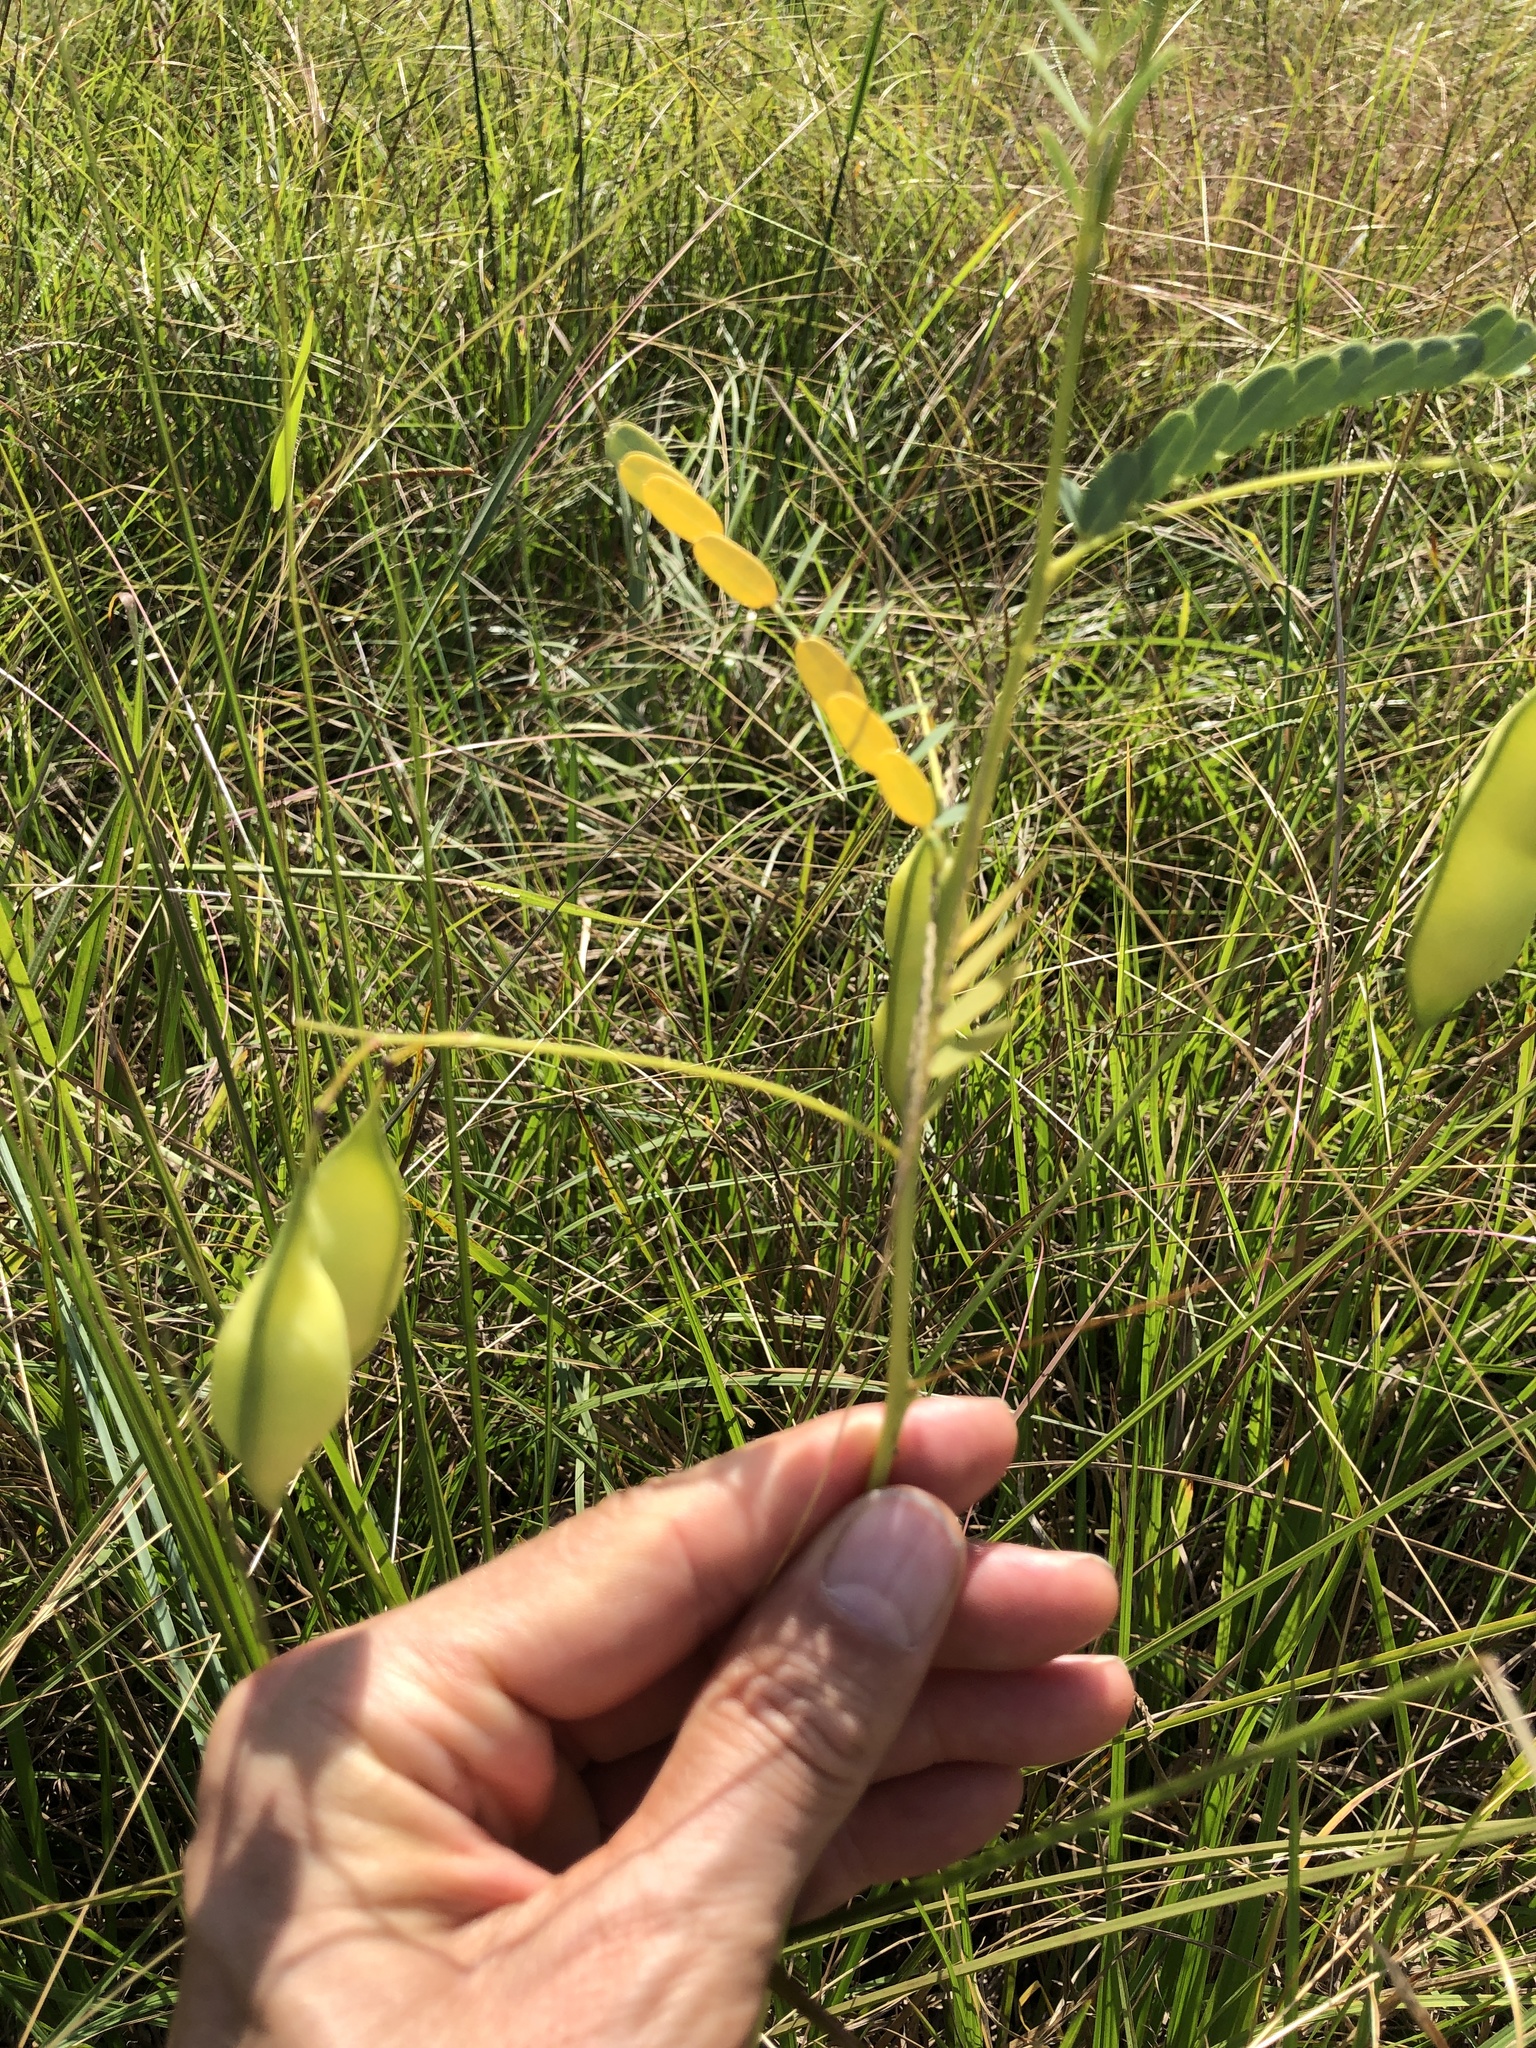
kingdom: Plantae
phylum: Tracheophyta
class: Magnoliopsida
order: Fabales
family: Fabaceae
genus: Sesbania
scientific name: Sesbania vesicaria
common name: Bagpod
